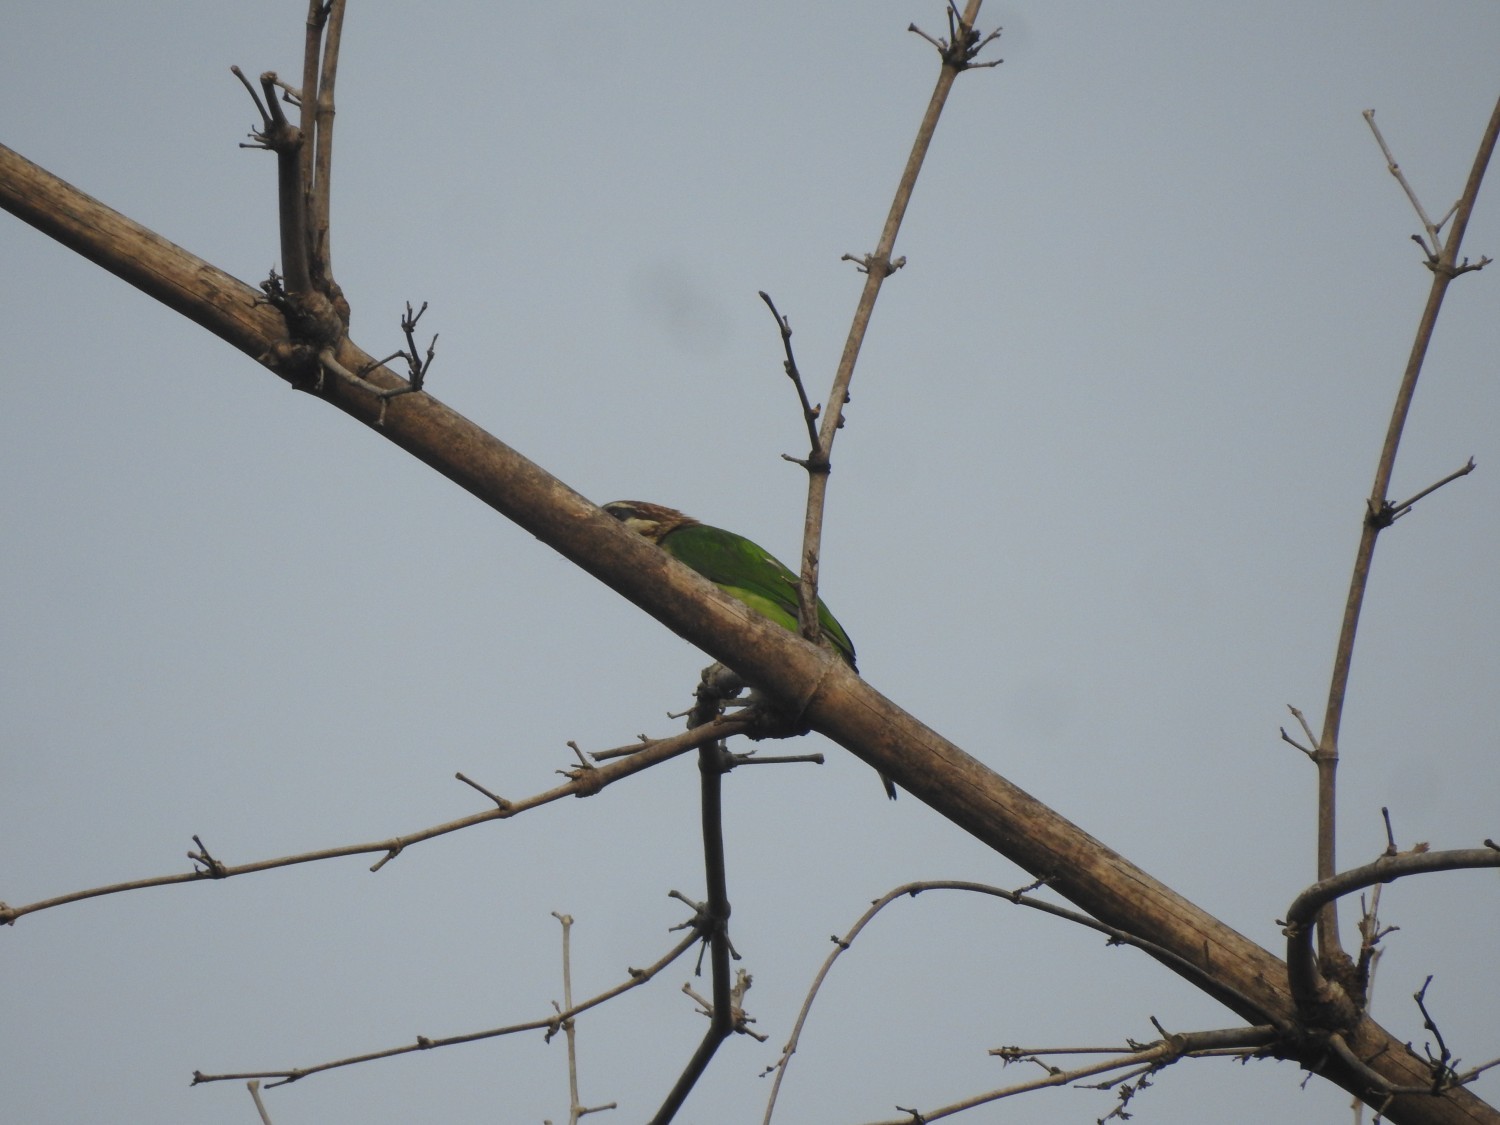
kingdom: Animalia
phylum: Chordata
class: Aves
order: Piciformes
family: Megalaimidae
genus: Psilopogon
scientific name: Psilopogon viridis
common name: White-cheeked barbet
